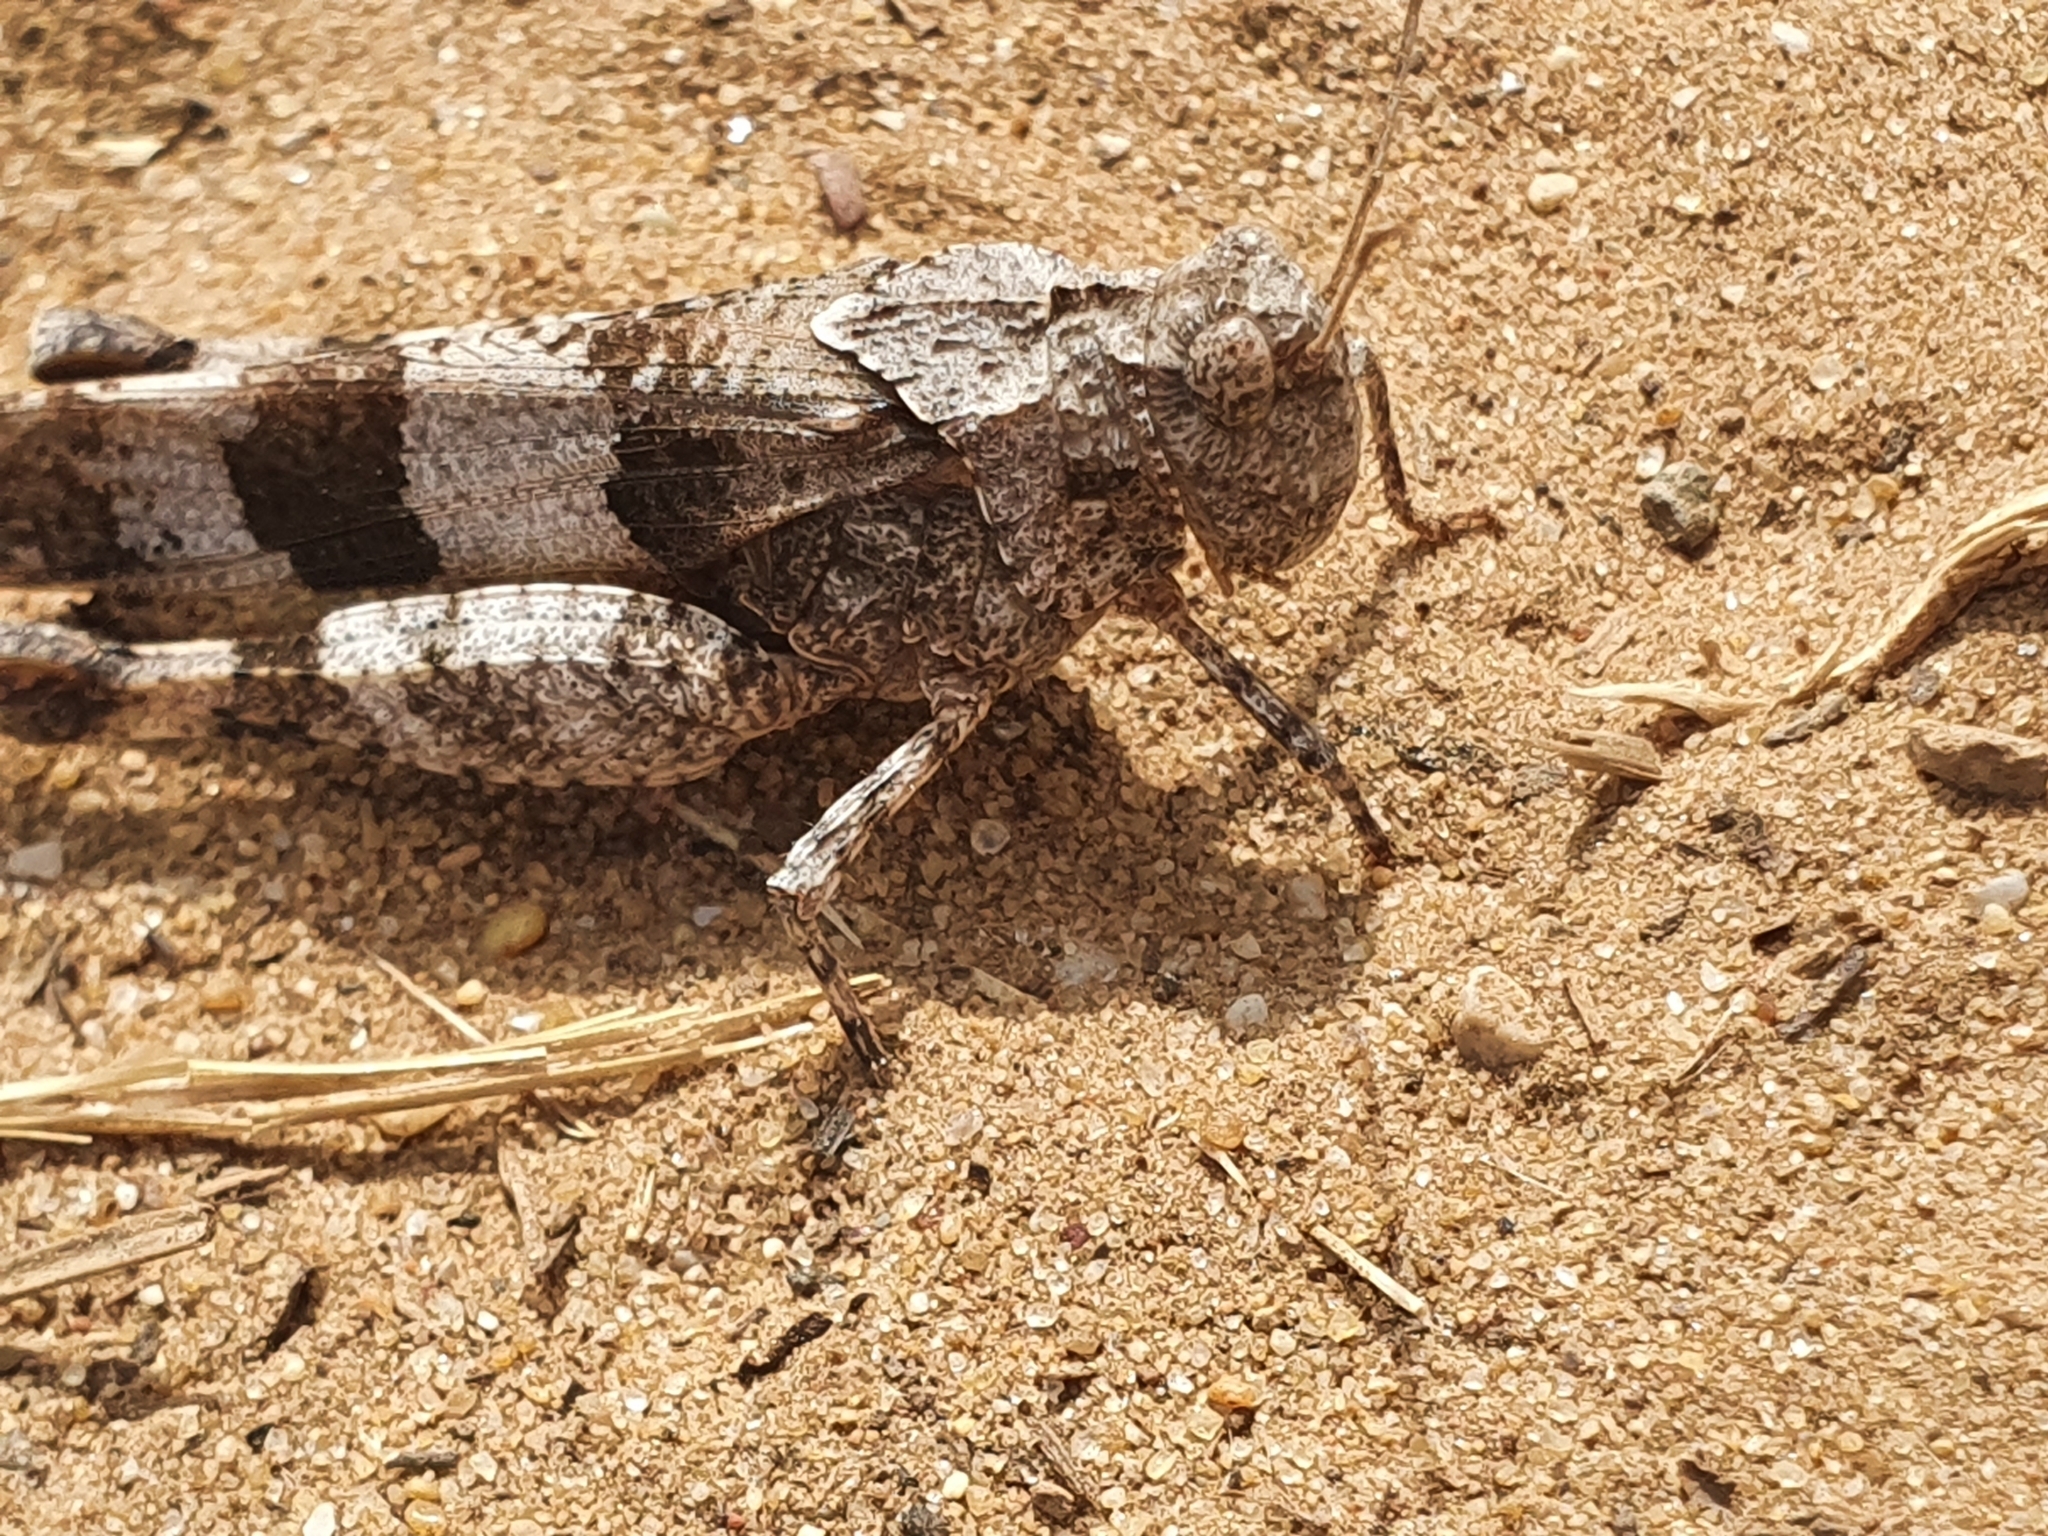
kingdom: Animalia
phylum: Arthropoda
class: Insecta
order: Orthoptera
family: Acrididae
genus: Oedipoda
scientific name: Oedipoda caerulescens
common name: Blue-winged grasshopper
